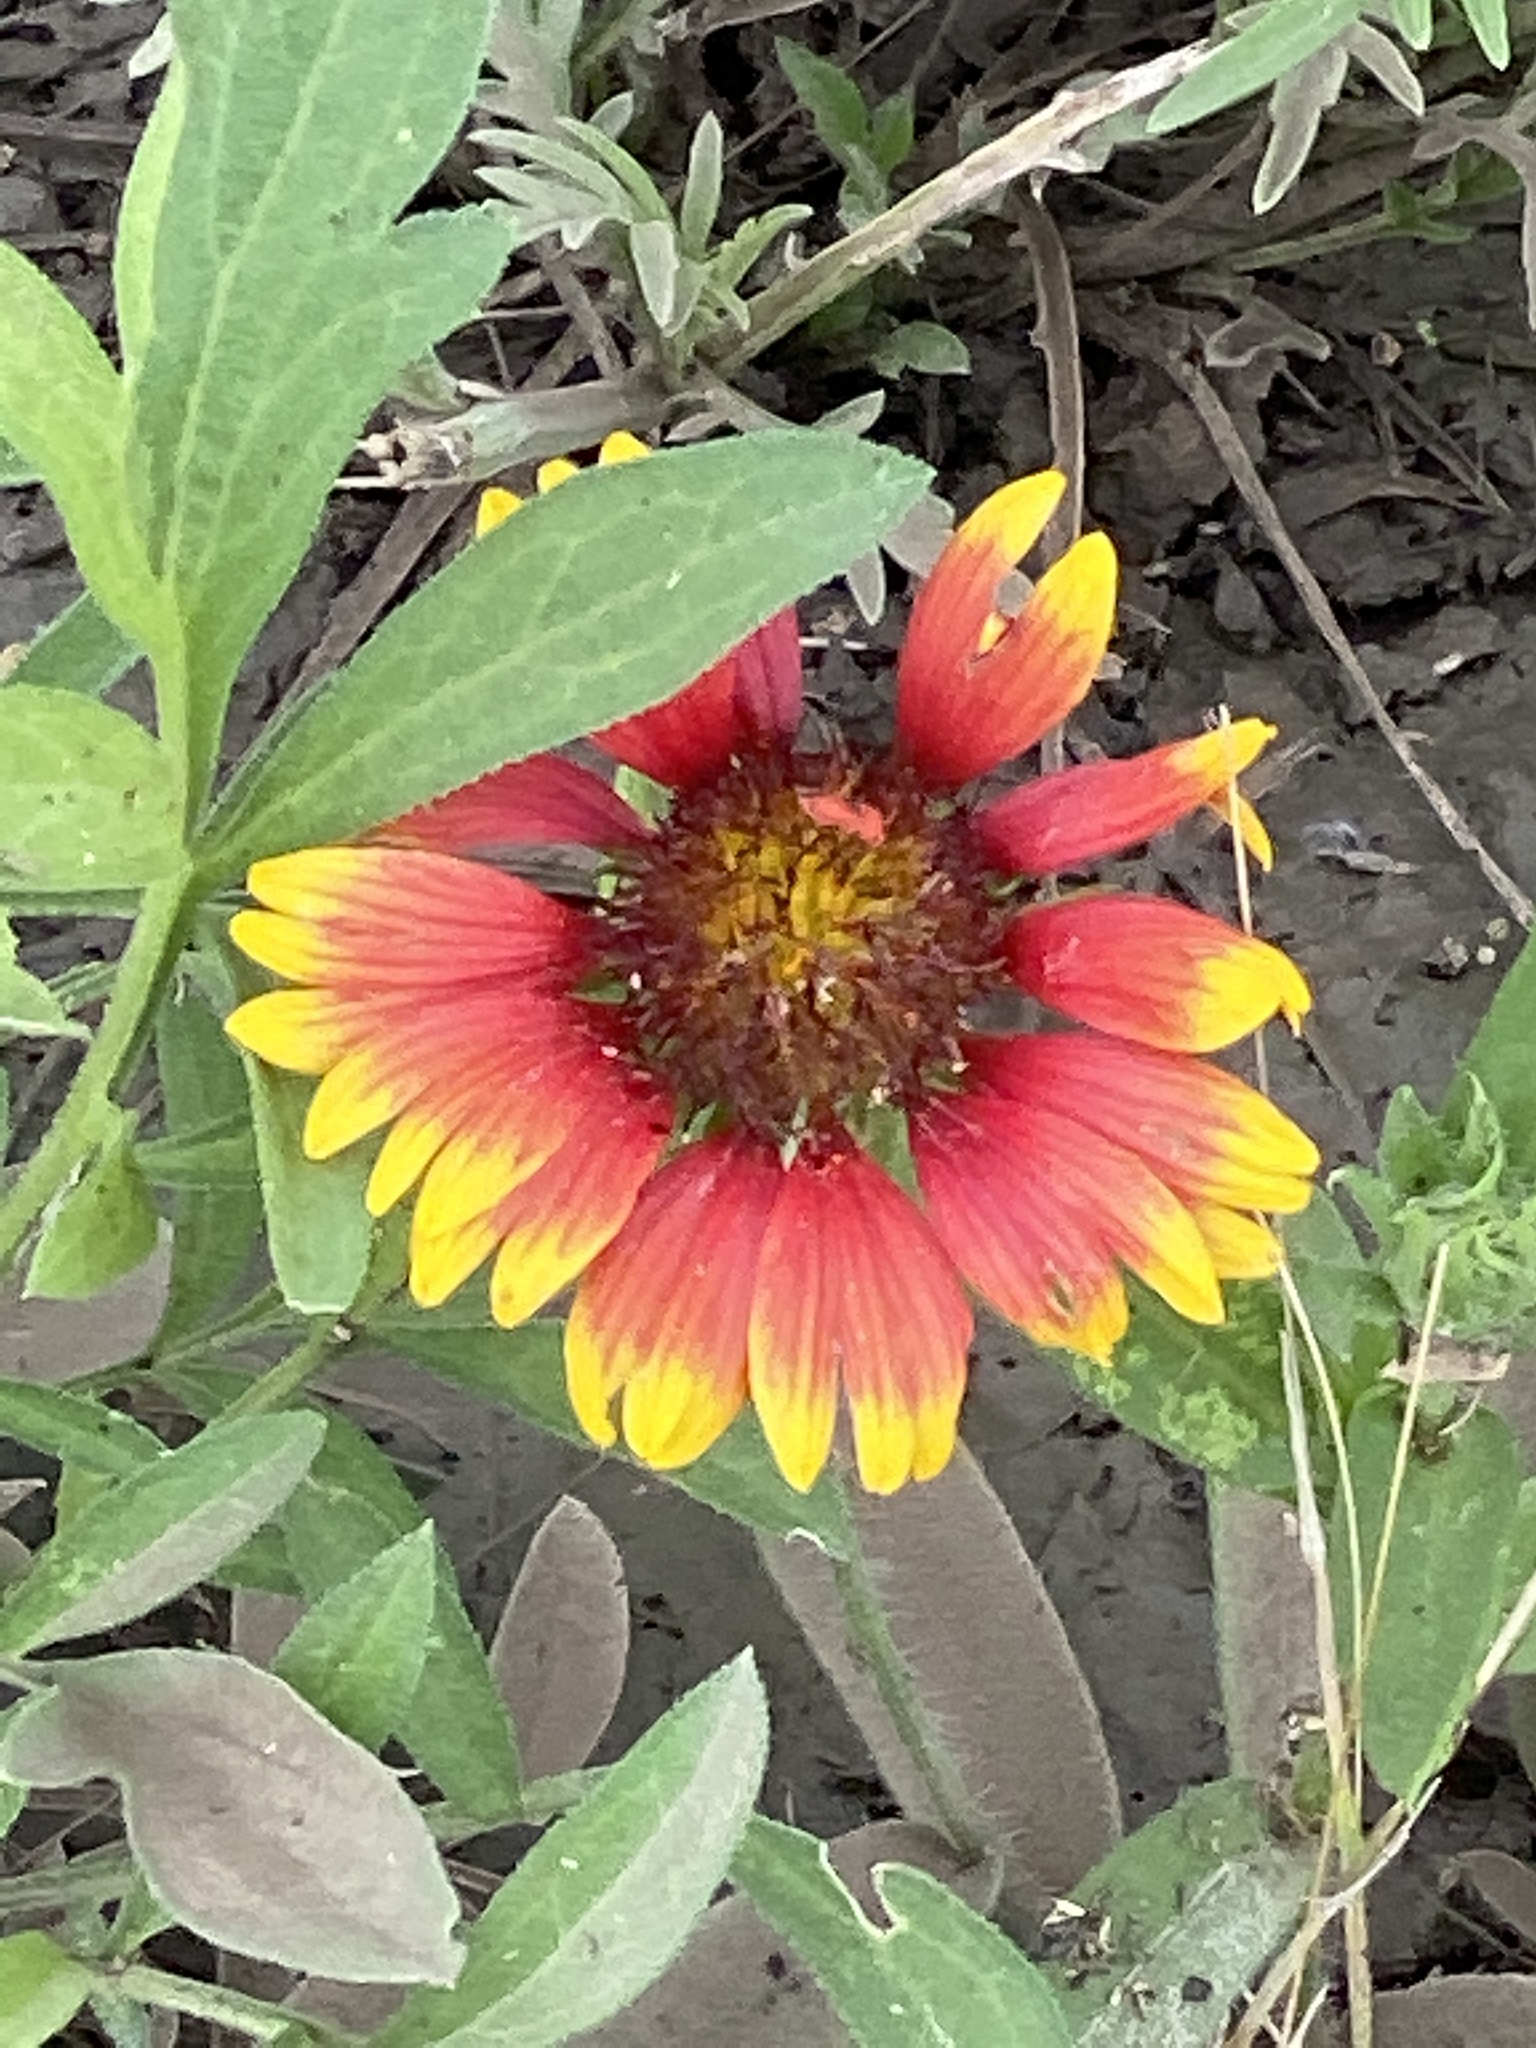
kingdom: Plantae
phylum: Tracheophyta
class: Magnoliopsida
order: Asterales
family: Asteraceae
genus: Gaillardia
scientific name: Gaillardia pulchella
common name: Firewheel
